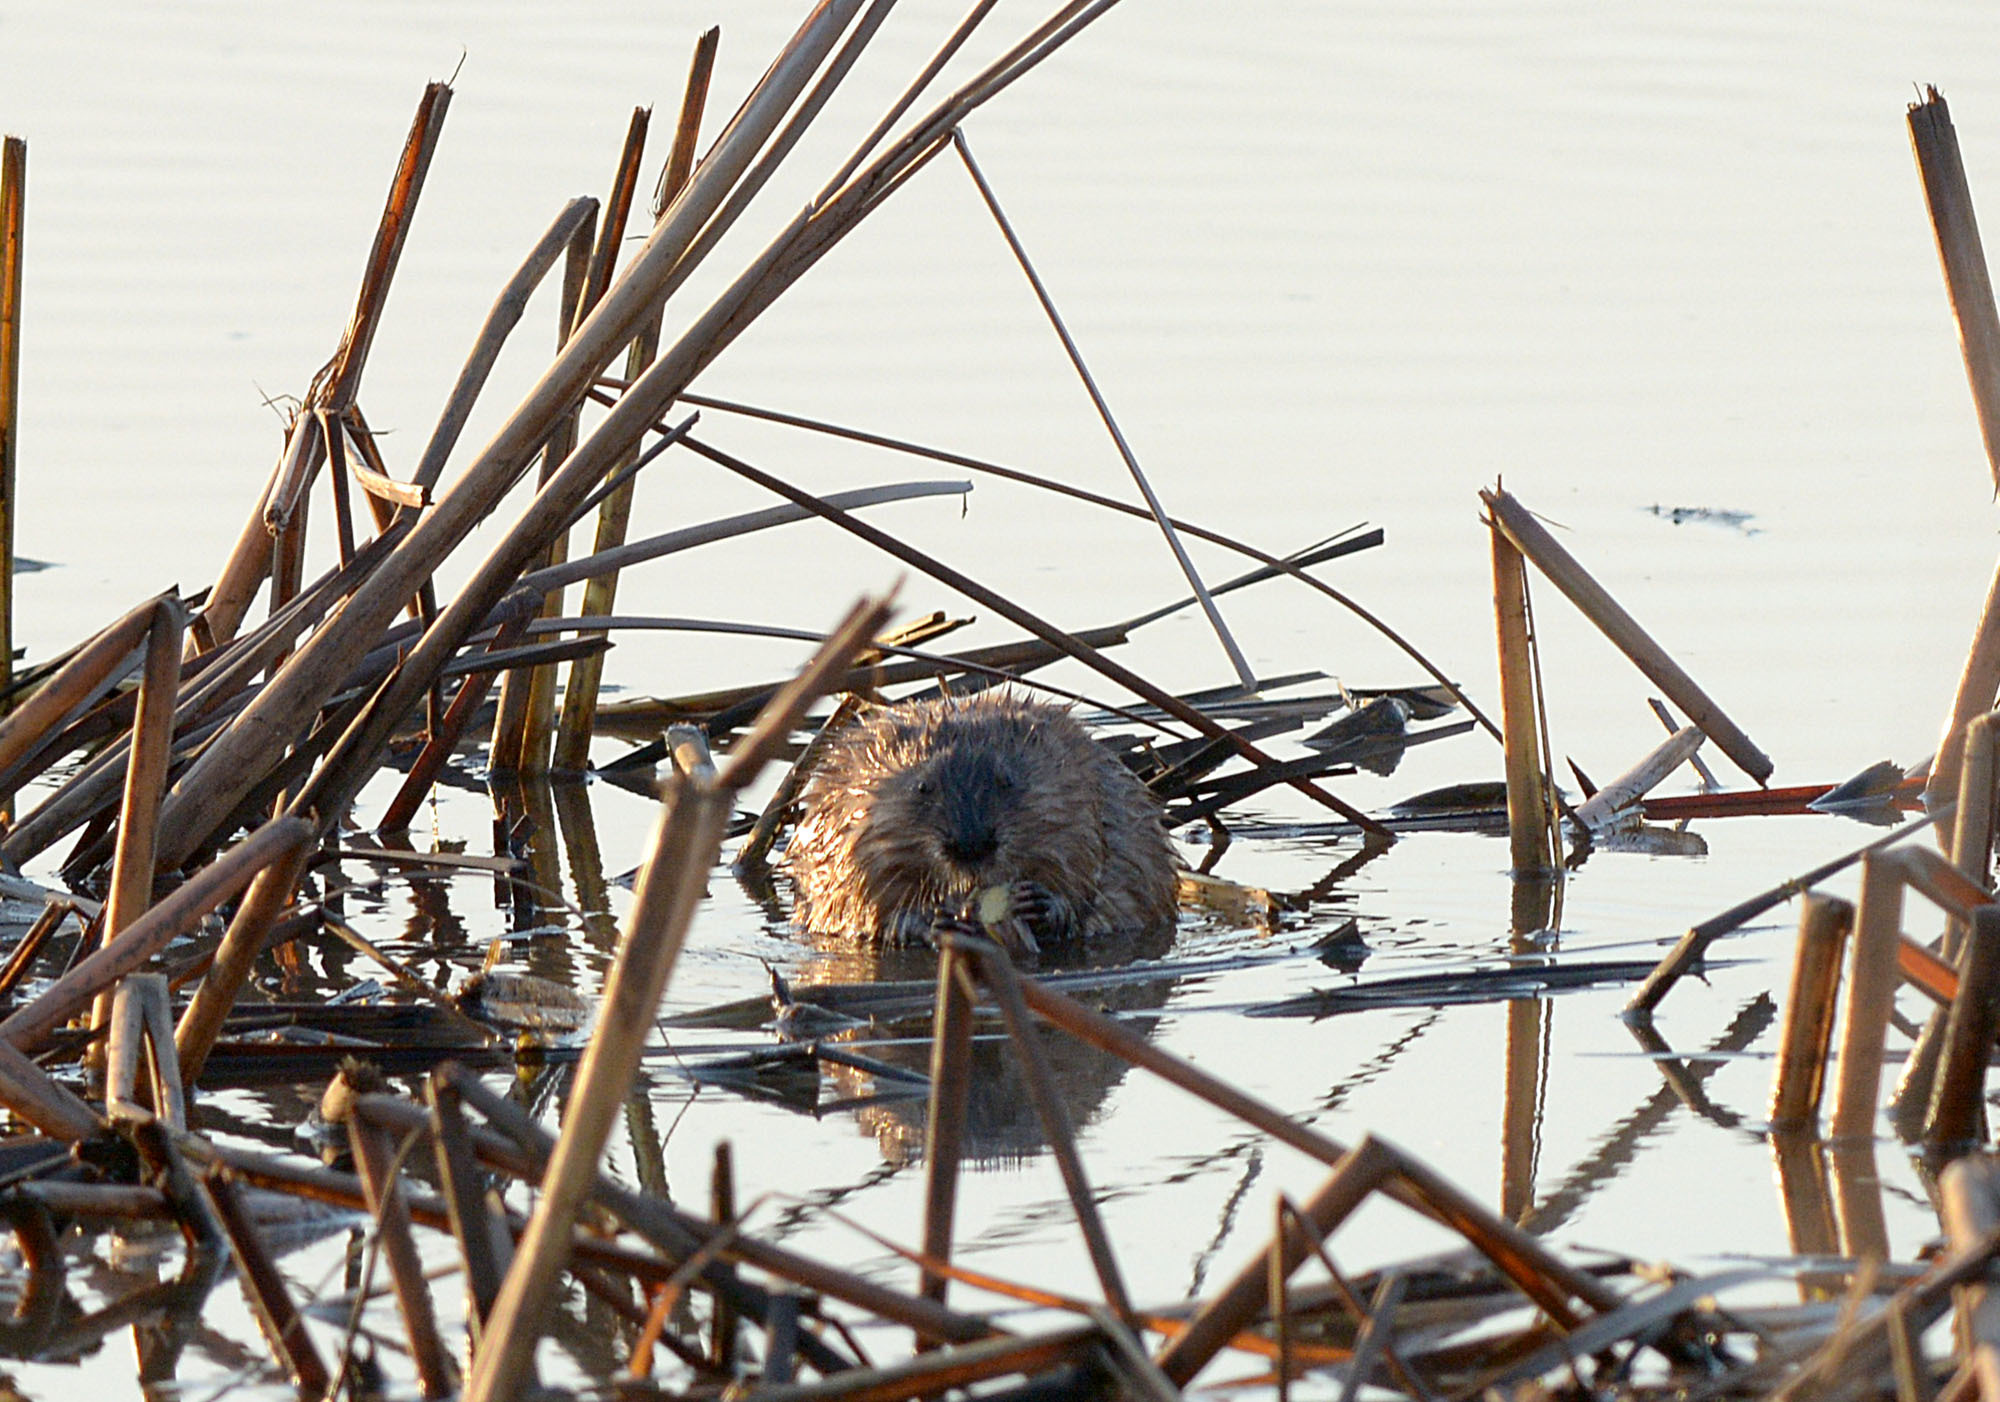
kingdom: Animalia
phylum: Chordata
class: Mammalia
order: Rodentia
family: Cricetidae
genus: Ondatra
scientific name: Ondatra zibethicus
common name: Muskrat
